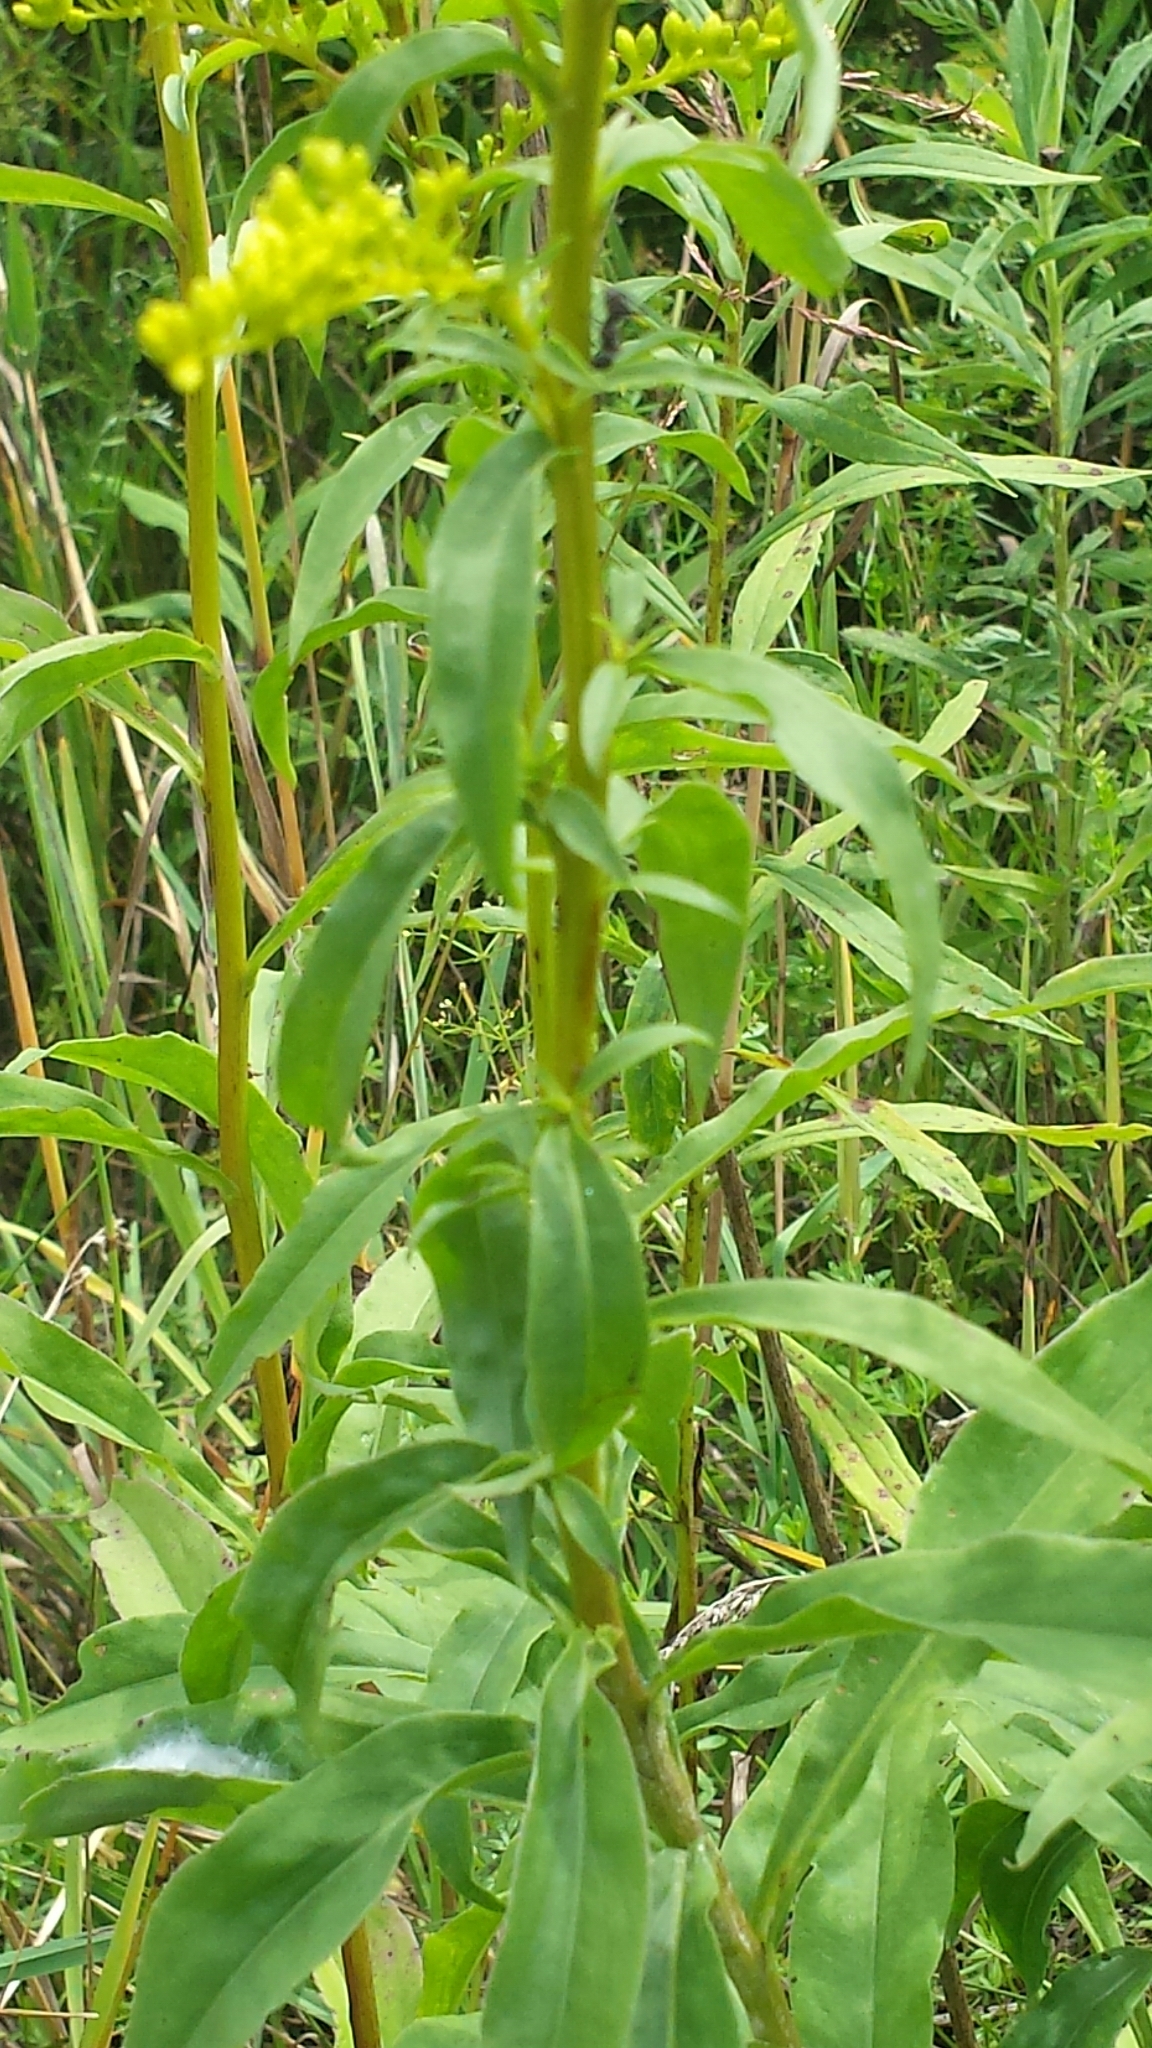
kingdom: Plantae
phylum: Tracheophyta
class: Magnoliopsida
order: Asterales
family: Asteraceae
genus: Solidago
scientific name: Solidago juncea
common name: Early goldenrod
